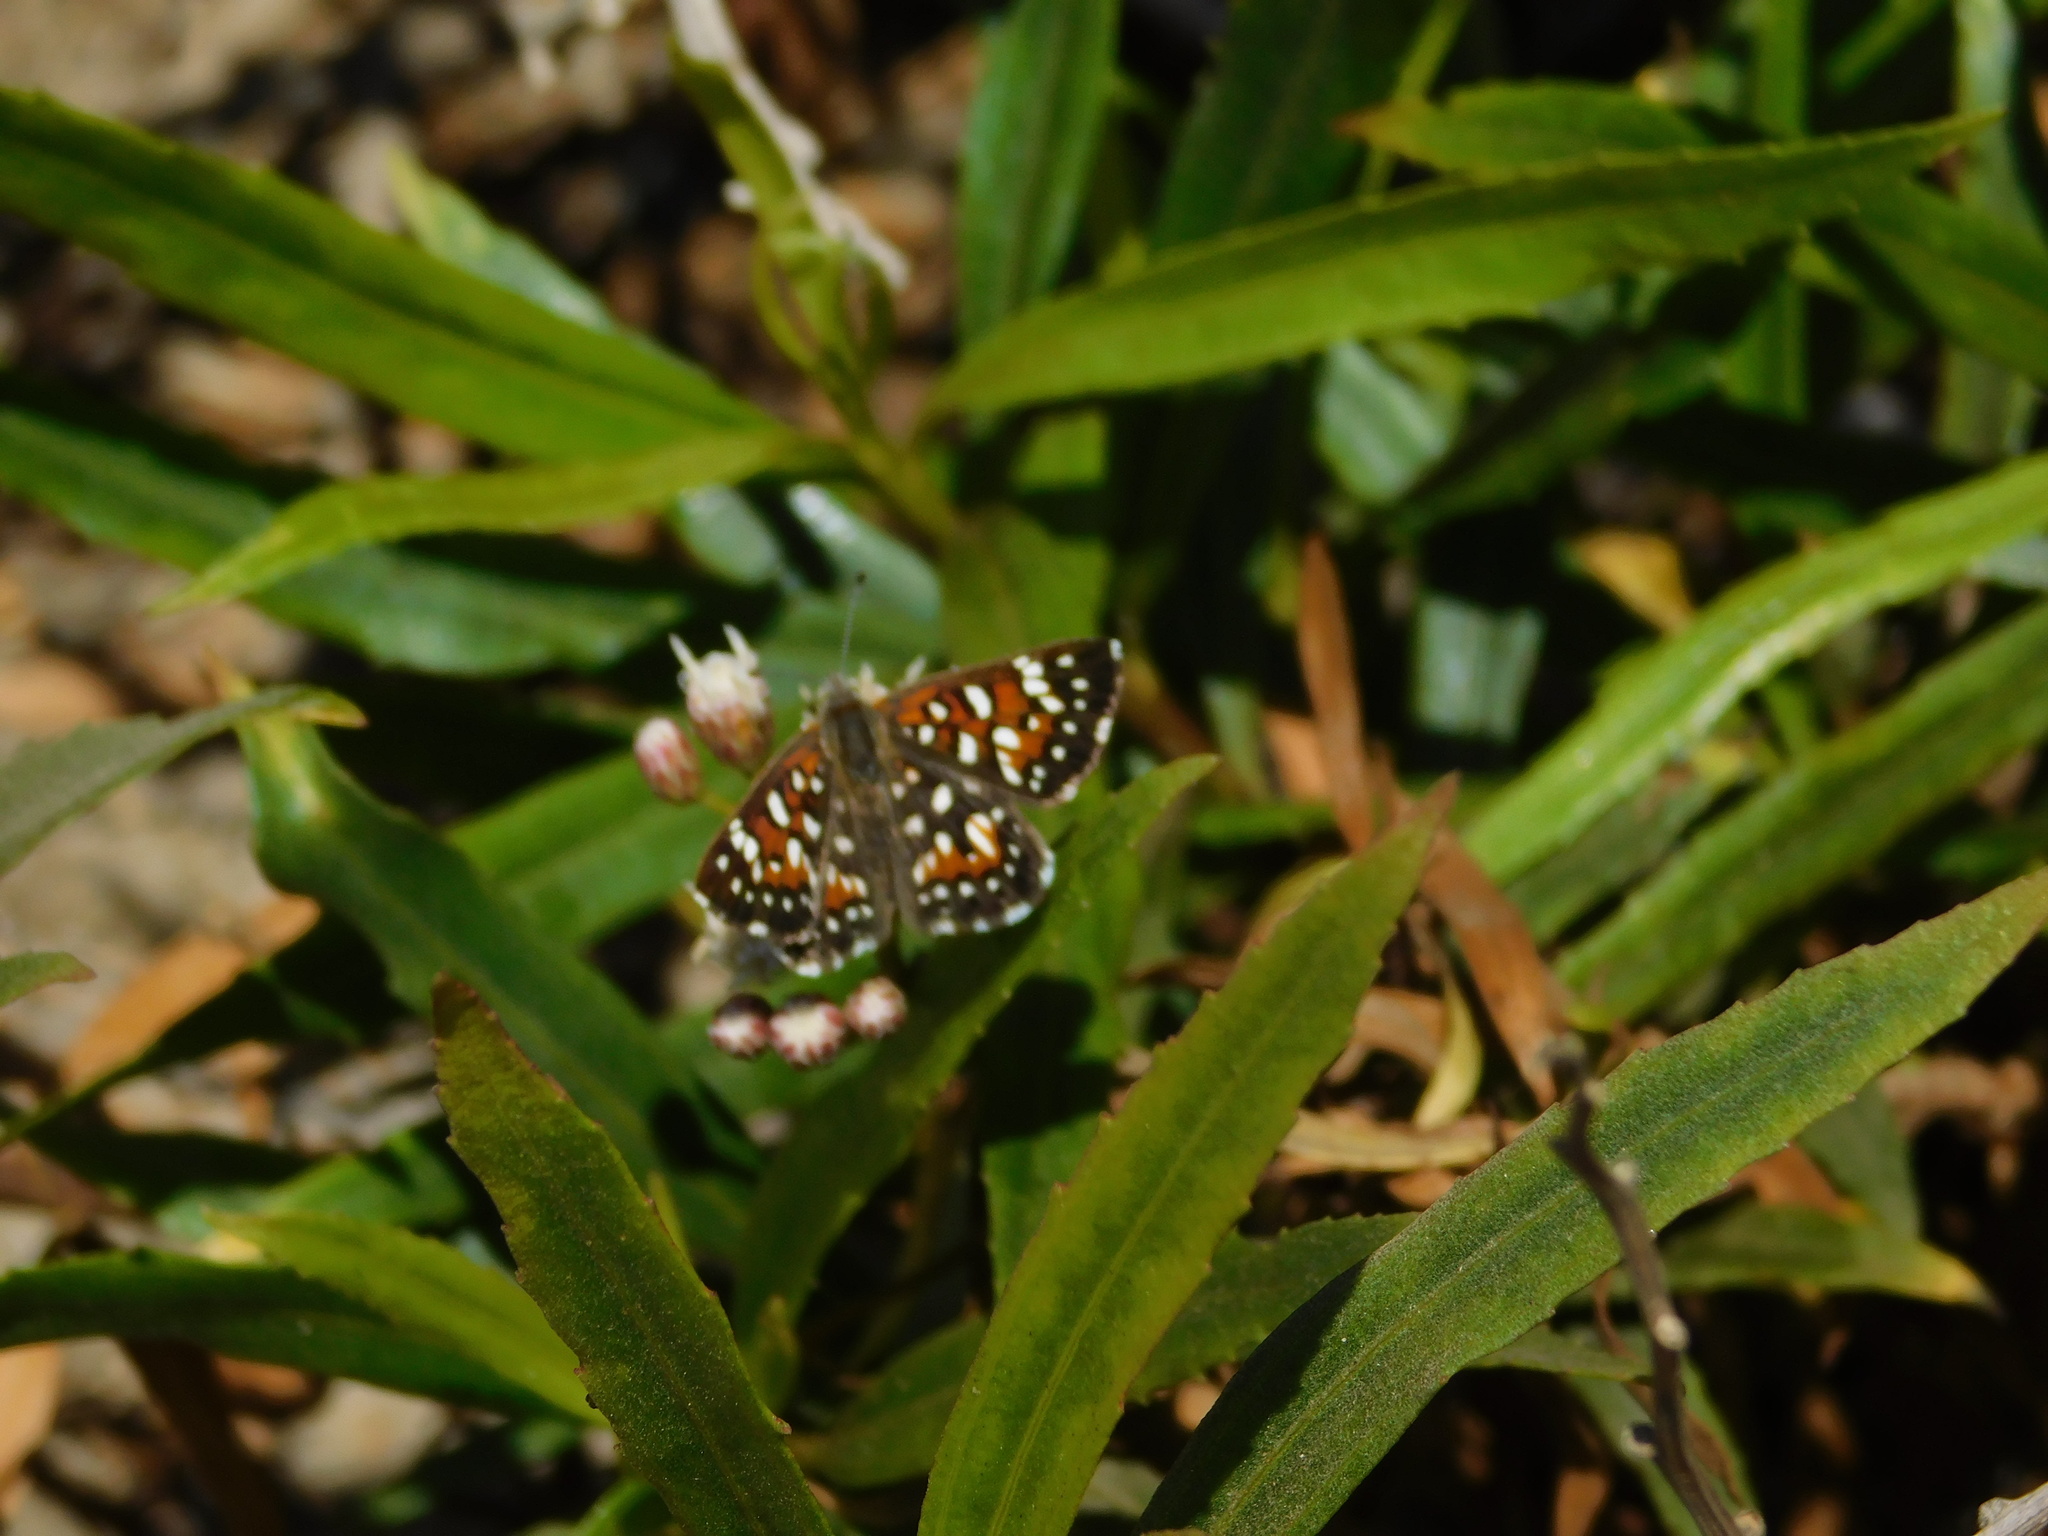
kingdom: Animalia
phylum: Arthropoda
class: Insecta
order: Lepidoptera
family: Riodinidae
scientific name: Riodinidae
